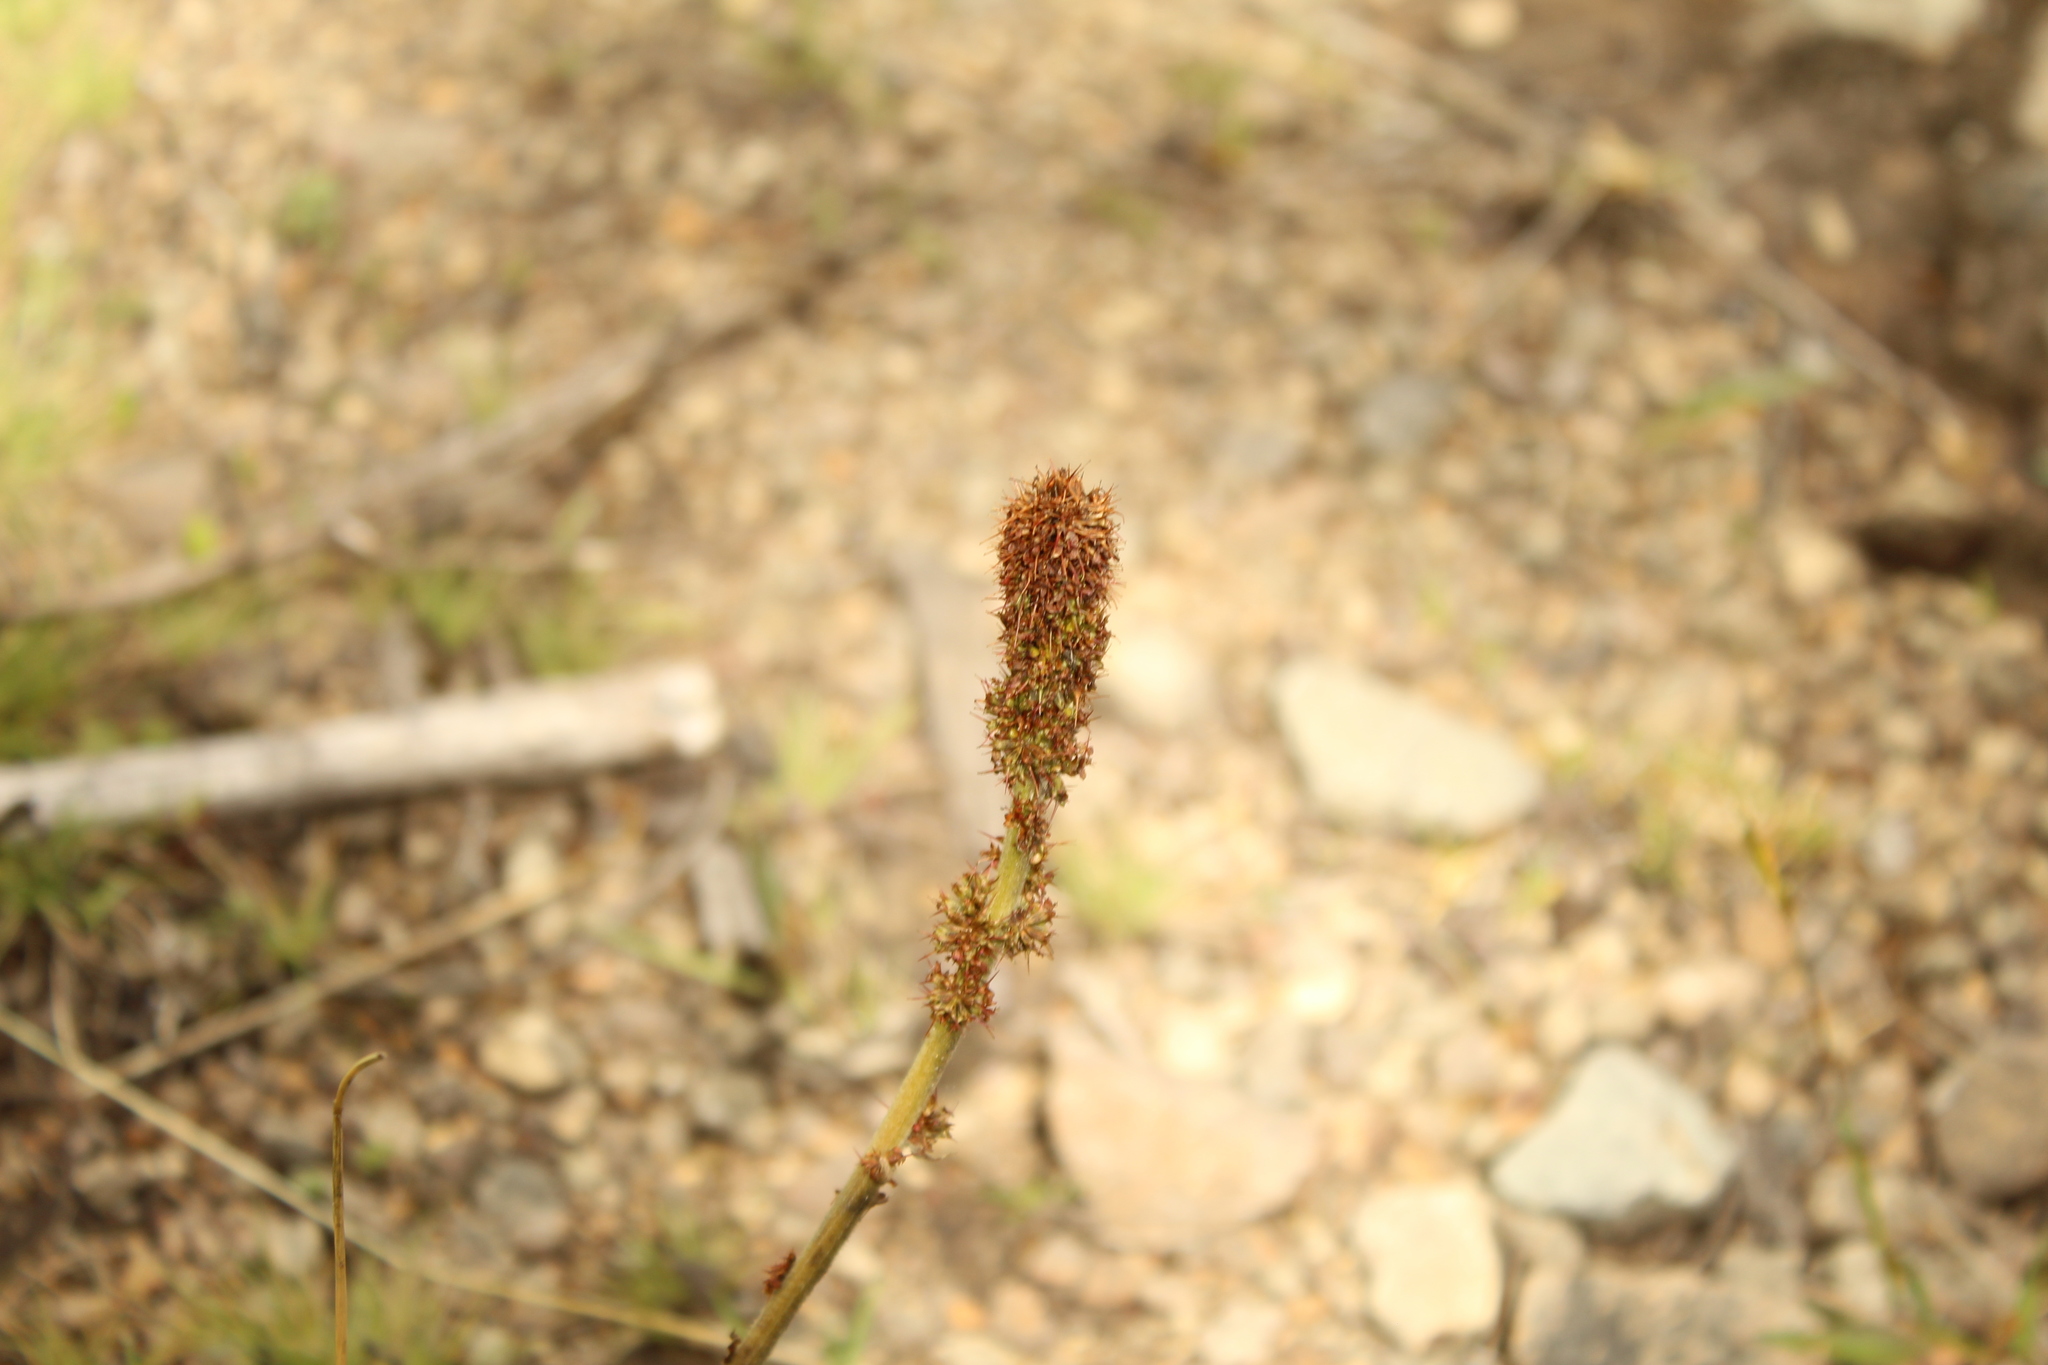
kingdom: Plantae
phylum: Tracheophyta
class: Magnoliopsida
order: Rosales
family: Rosaceae
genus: Acaena
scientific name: Acaena cylindristachya
